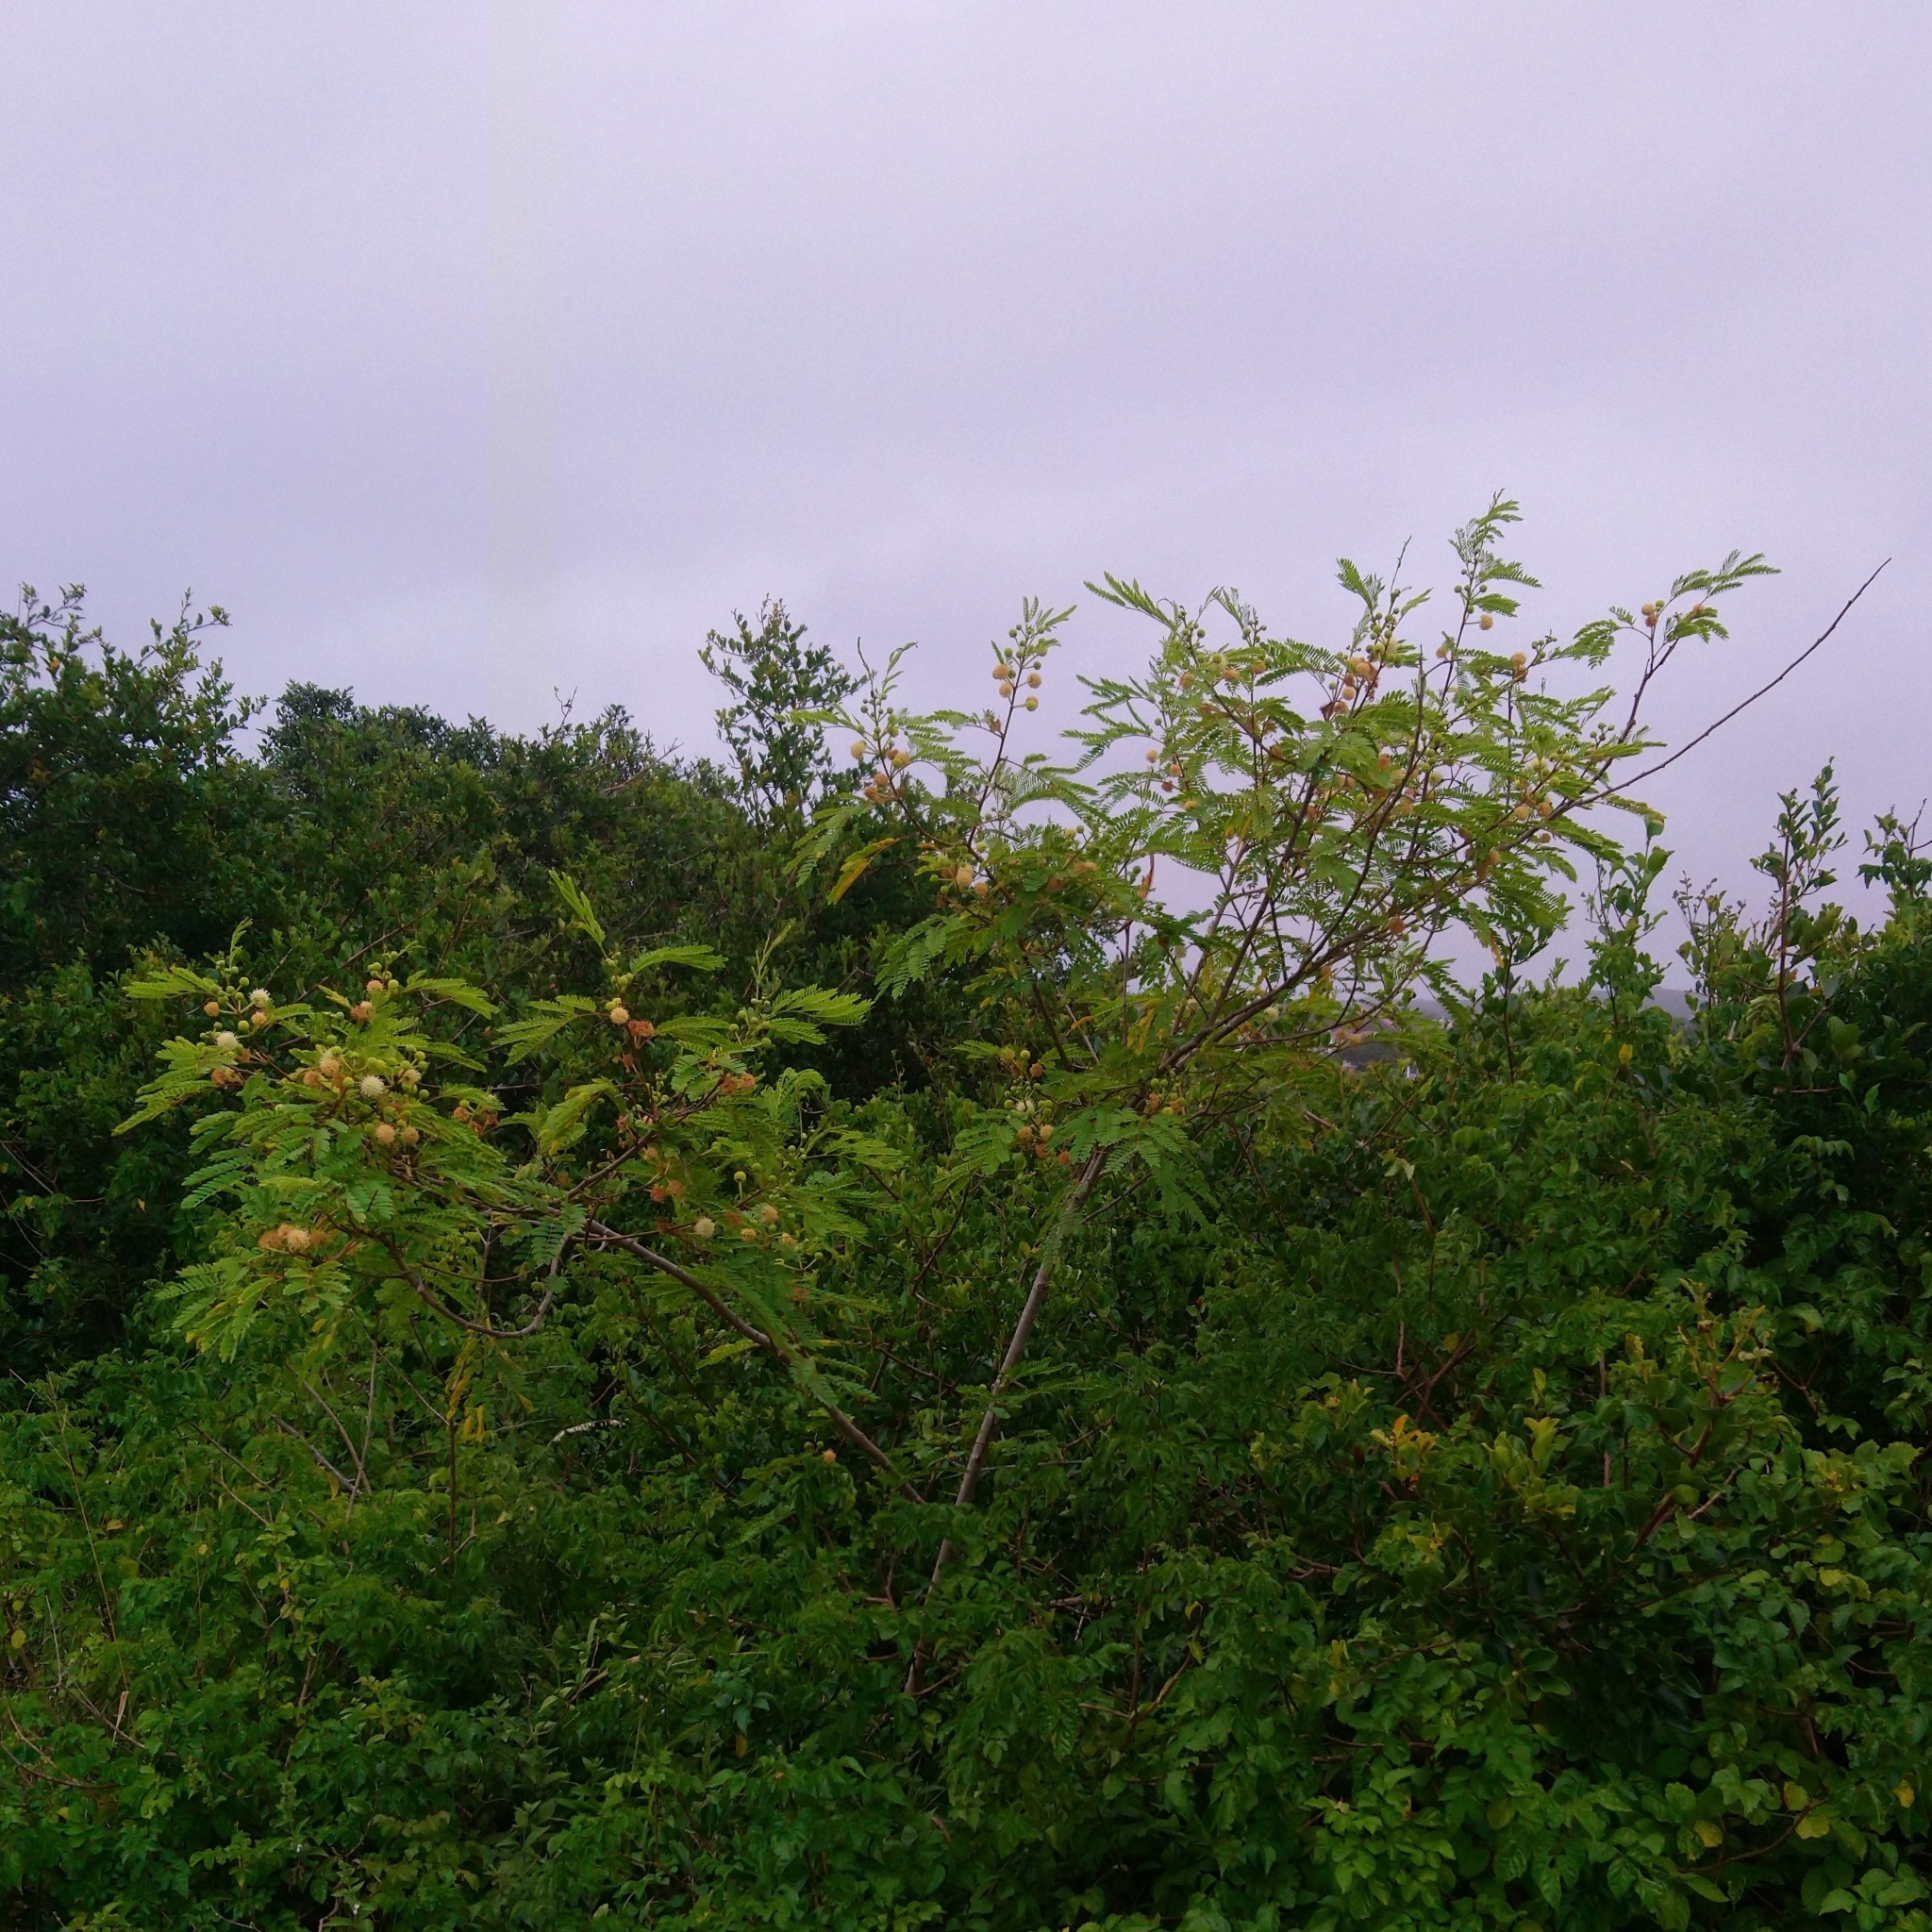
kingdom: Plantae
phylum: Tracheophyta
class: Magnoliopsida
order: Fabales
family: Fabaceae
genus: Leucaena
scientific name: Leucaena leucocephala
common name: White leadtree
